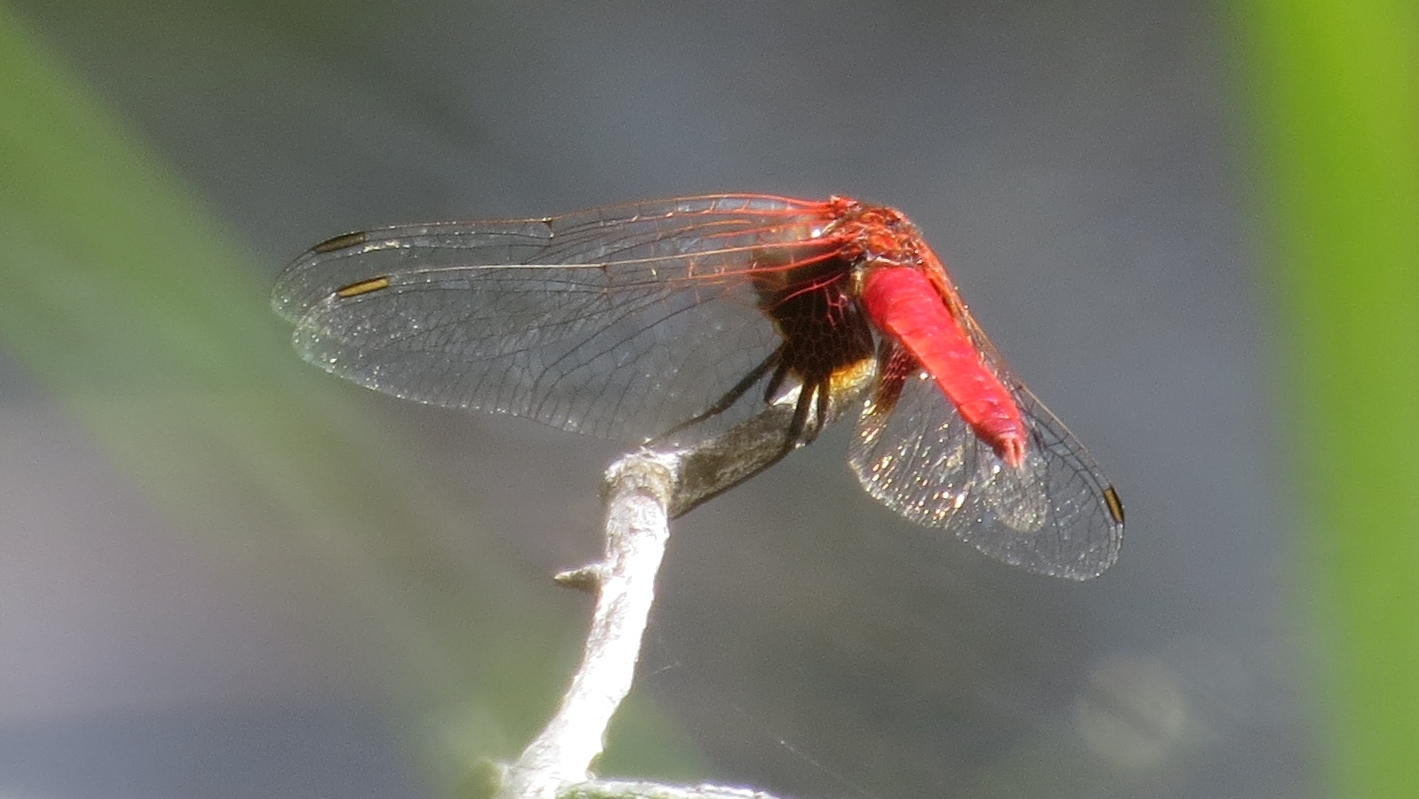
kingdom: Animalia
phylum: Arthropoda
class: Insecta
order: Odonata
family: Libellulidae
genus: Aethriamanta
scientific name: Aethriamanta circumsignata
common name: Square-spot basker
